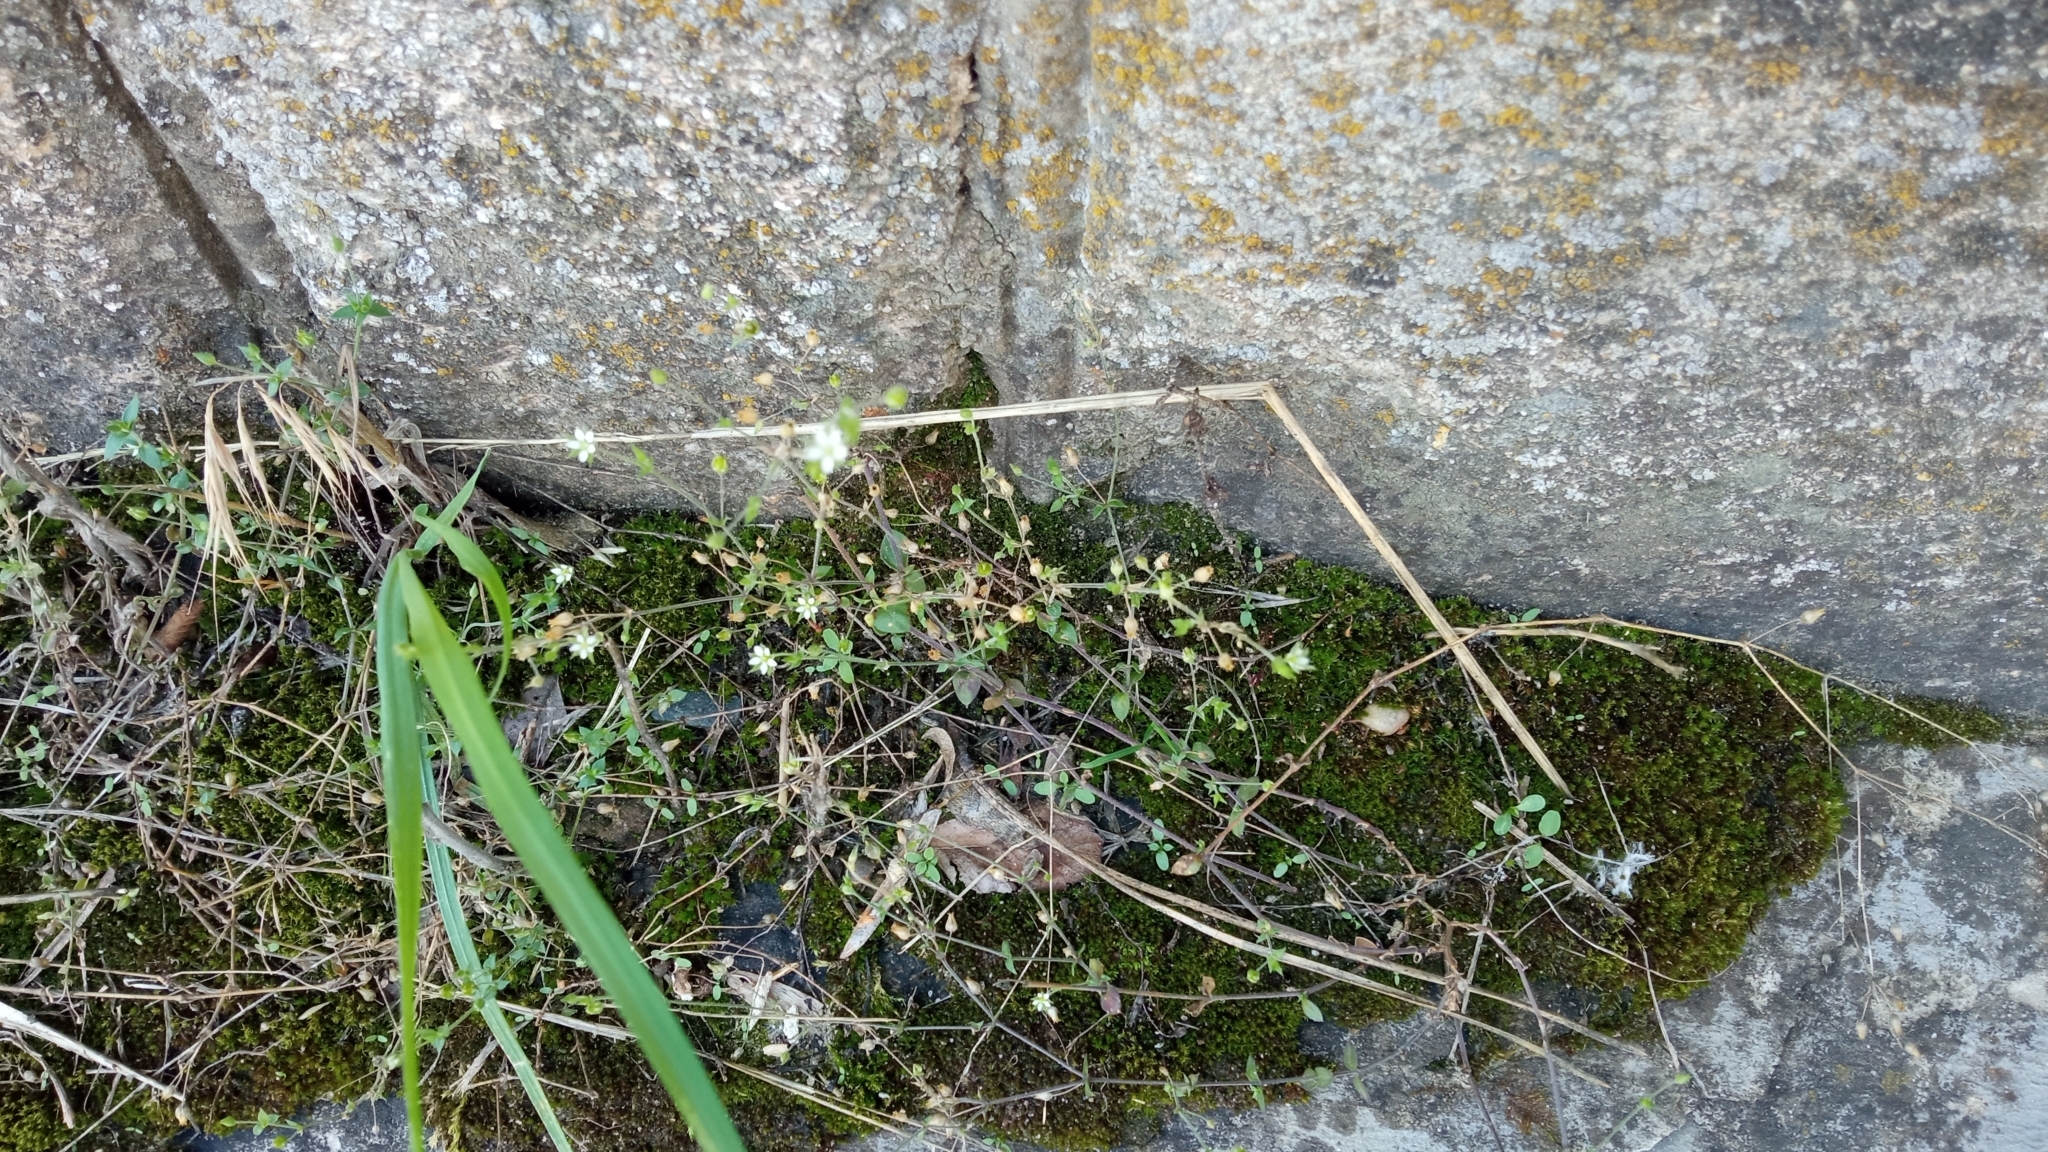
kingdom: Plantae
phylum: Tracheophyta
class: Magnoliopsida
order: Caryophyllales
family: Caryophyllaceae
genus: Arenaria
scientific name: Arenaria serpyllifolia
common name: Thyme-leaved sandwort
